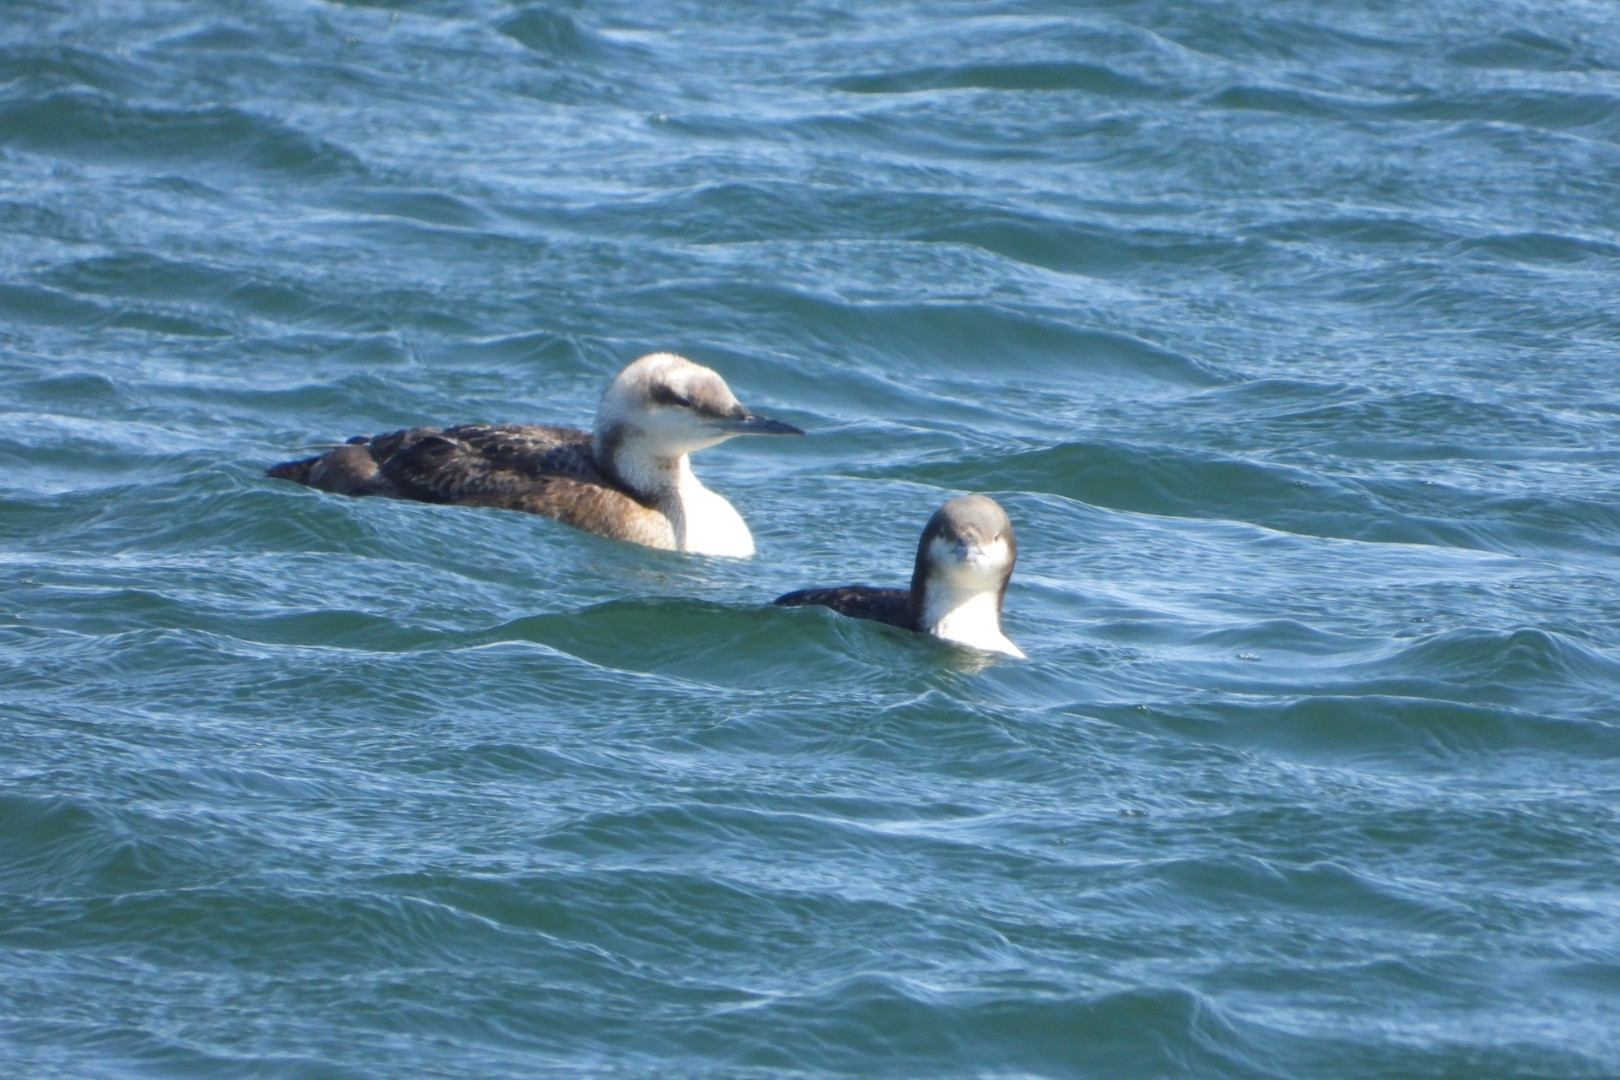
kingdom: Animalia
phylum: Chordata
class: Aves
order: Gaviiformes
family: Gaviidae
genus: Gavia
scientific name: Gavia pacifica
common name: Pacific loon
